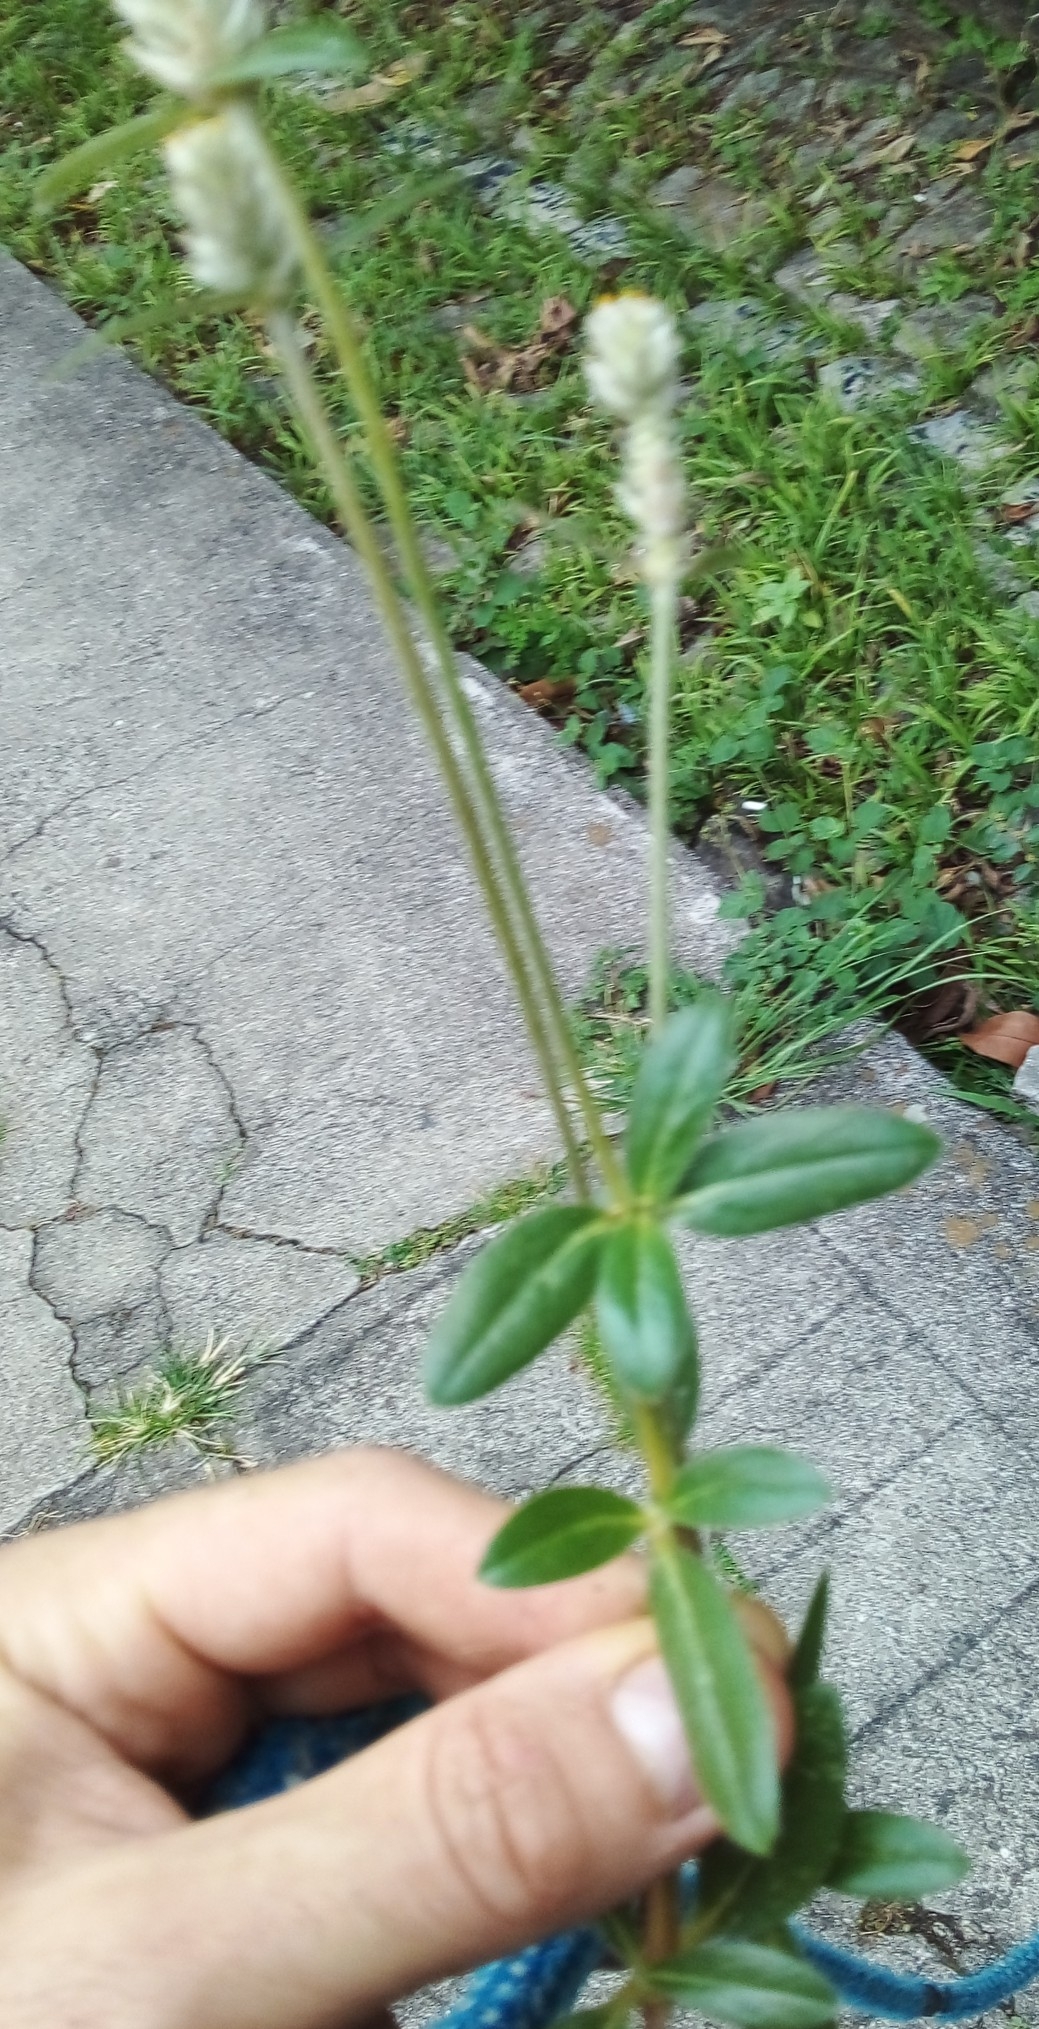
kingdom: Plantae
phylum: Tracheophyta
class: Magnoliopsida
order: Caryophyllales
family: Amaranthaceae
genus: Gomphrena
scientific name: Gomphrena celosioides
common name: Gomphrena-weed
